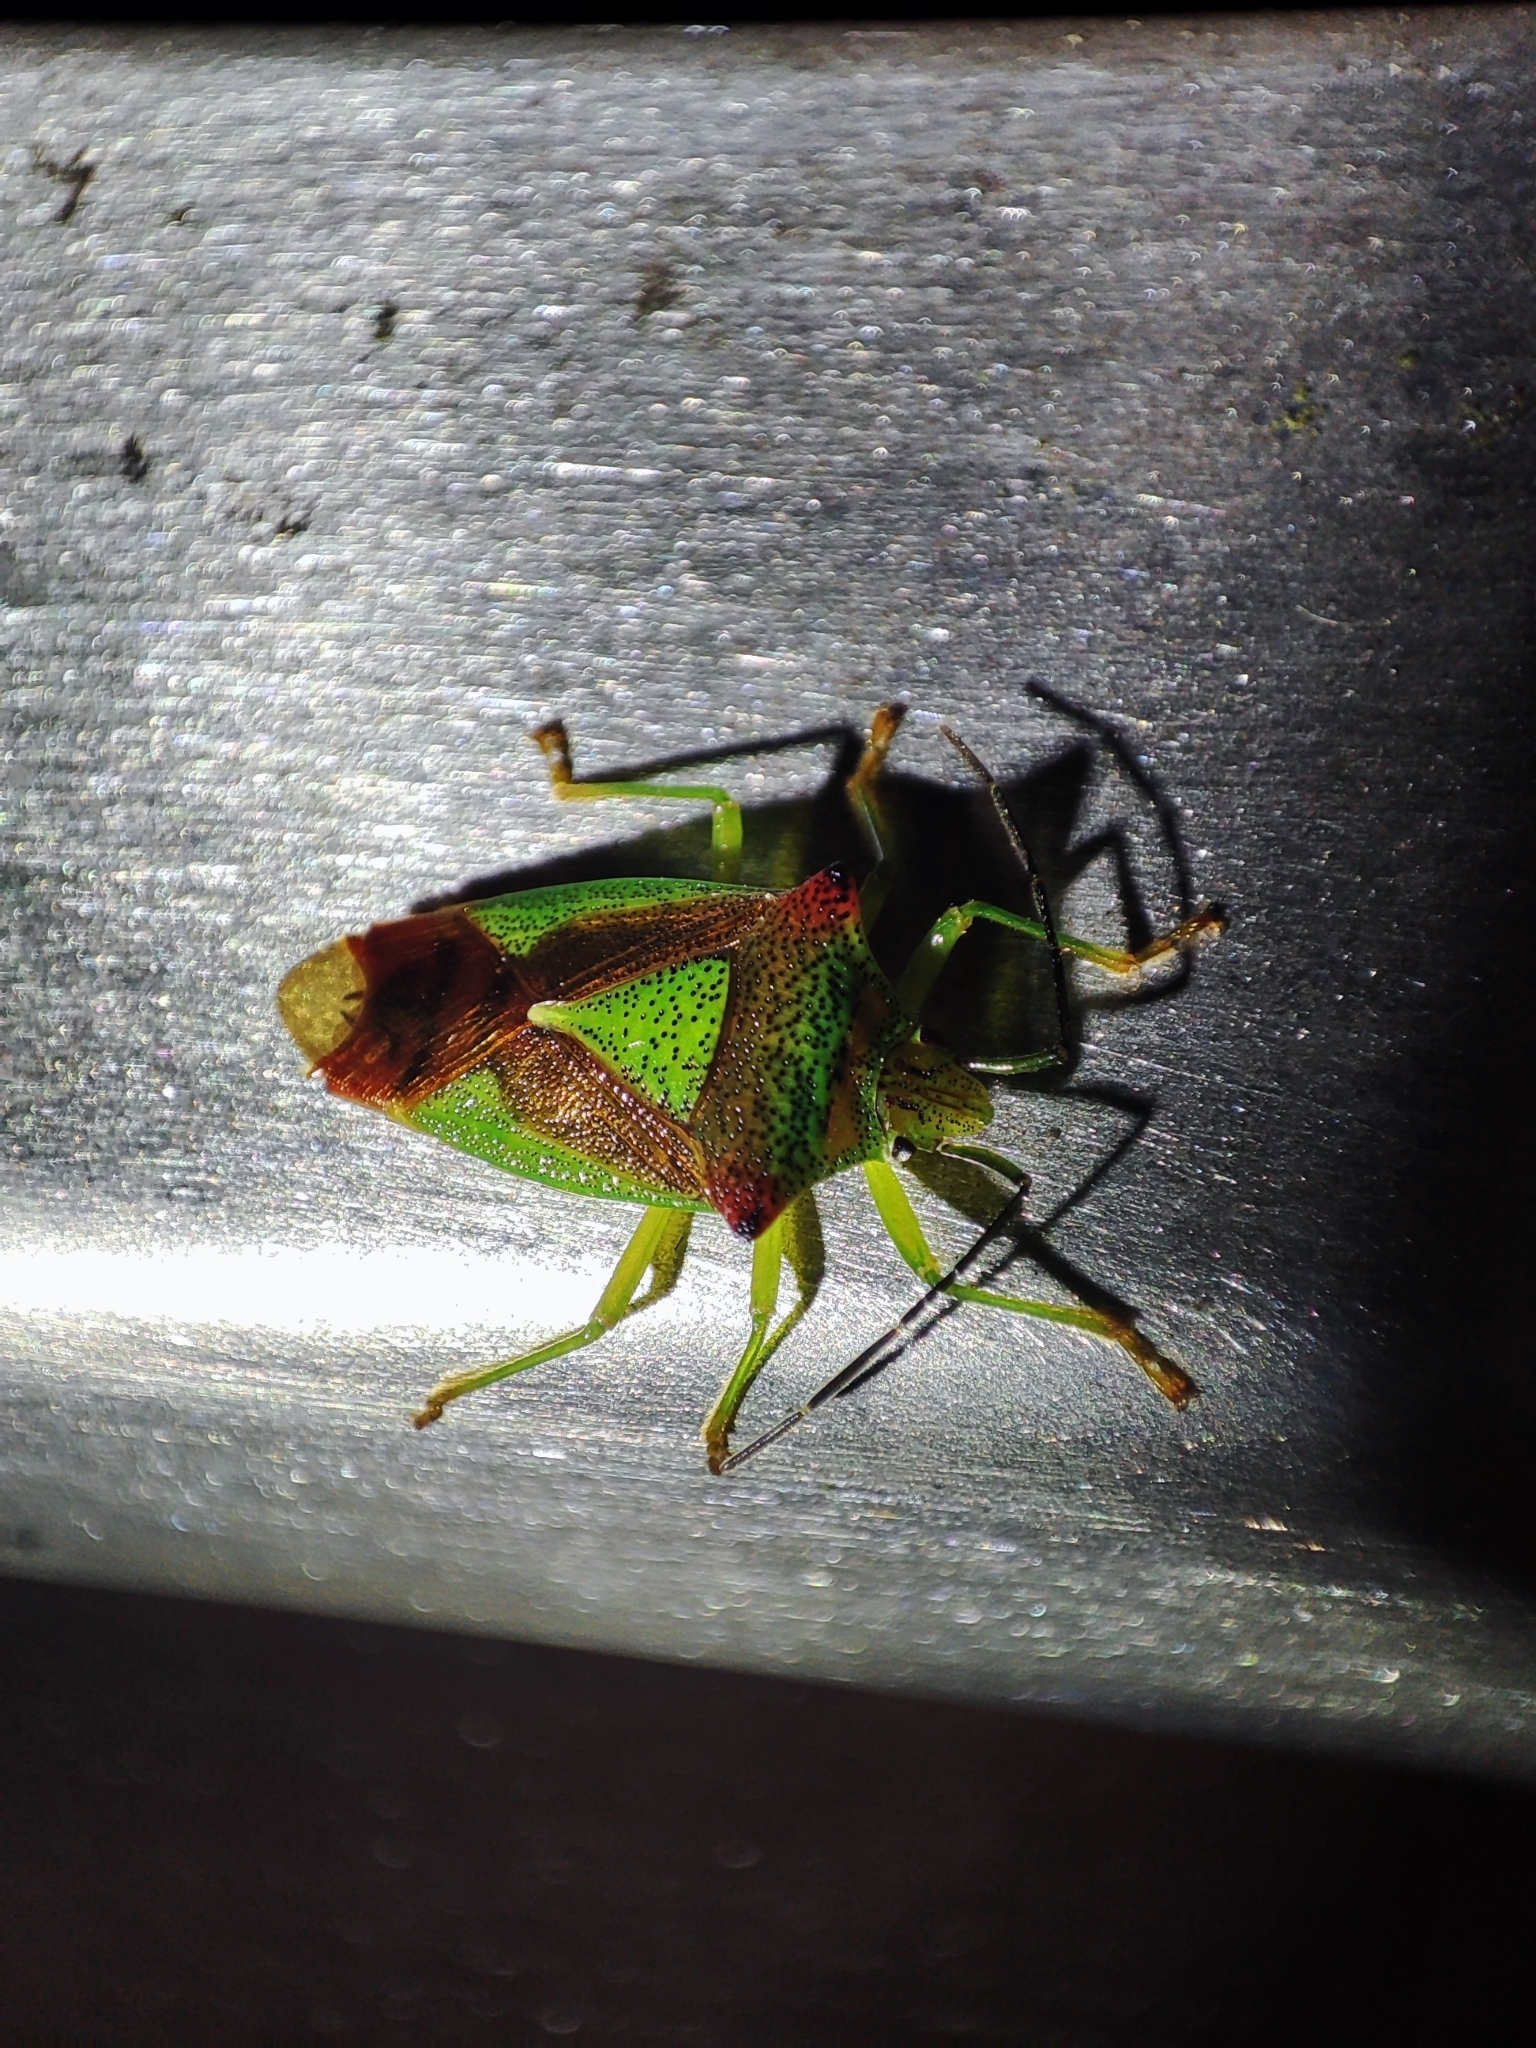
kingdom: Animalia
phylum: Arthropoda
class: Insecta
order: Hemiptera
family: Acanthosomatidae
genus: Acanthosoma
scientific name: Acanthosoma haemorrhoidale
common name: Hawthorn shieldbug
